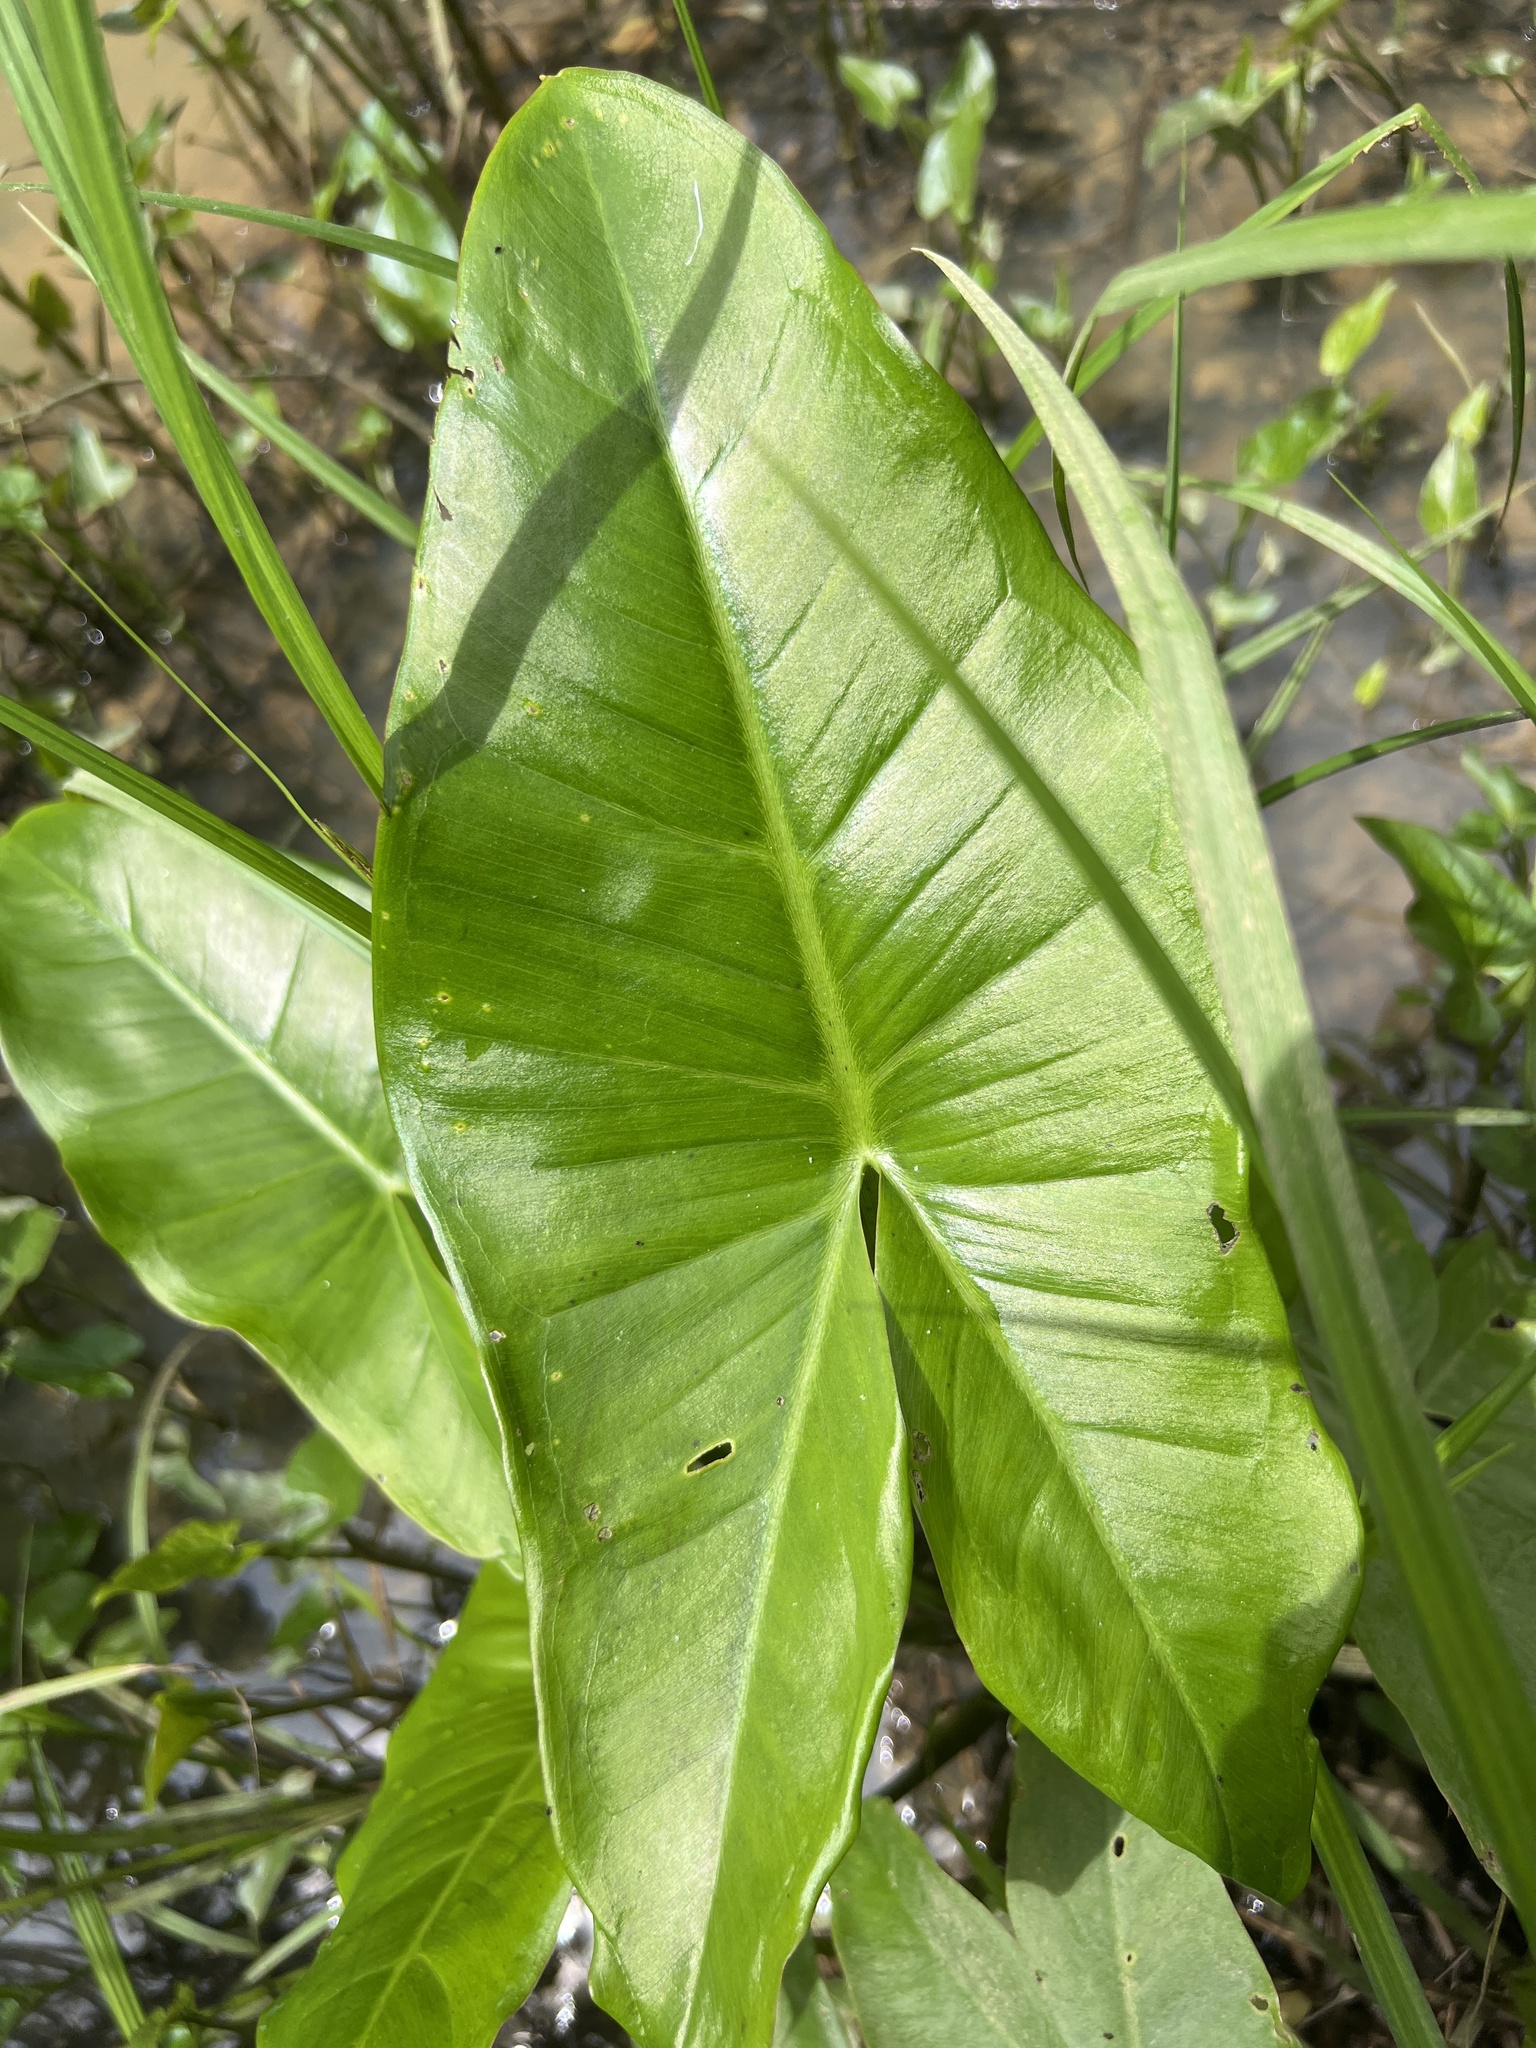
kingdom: Plantae
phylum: Tracheophyta
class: Liliopsida
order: Alismatales
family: Araceae
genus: Peltandra
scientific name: Peltandra virginica
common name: Arrow arum
